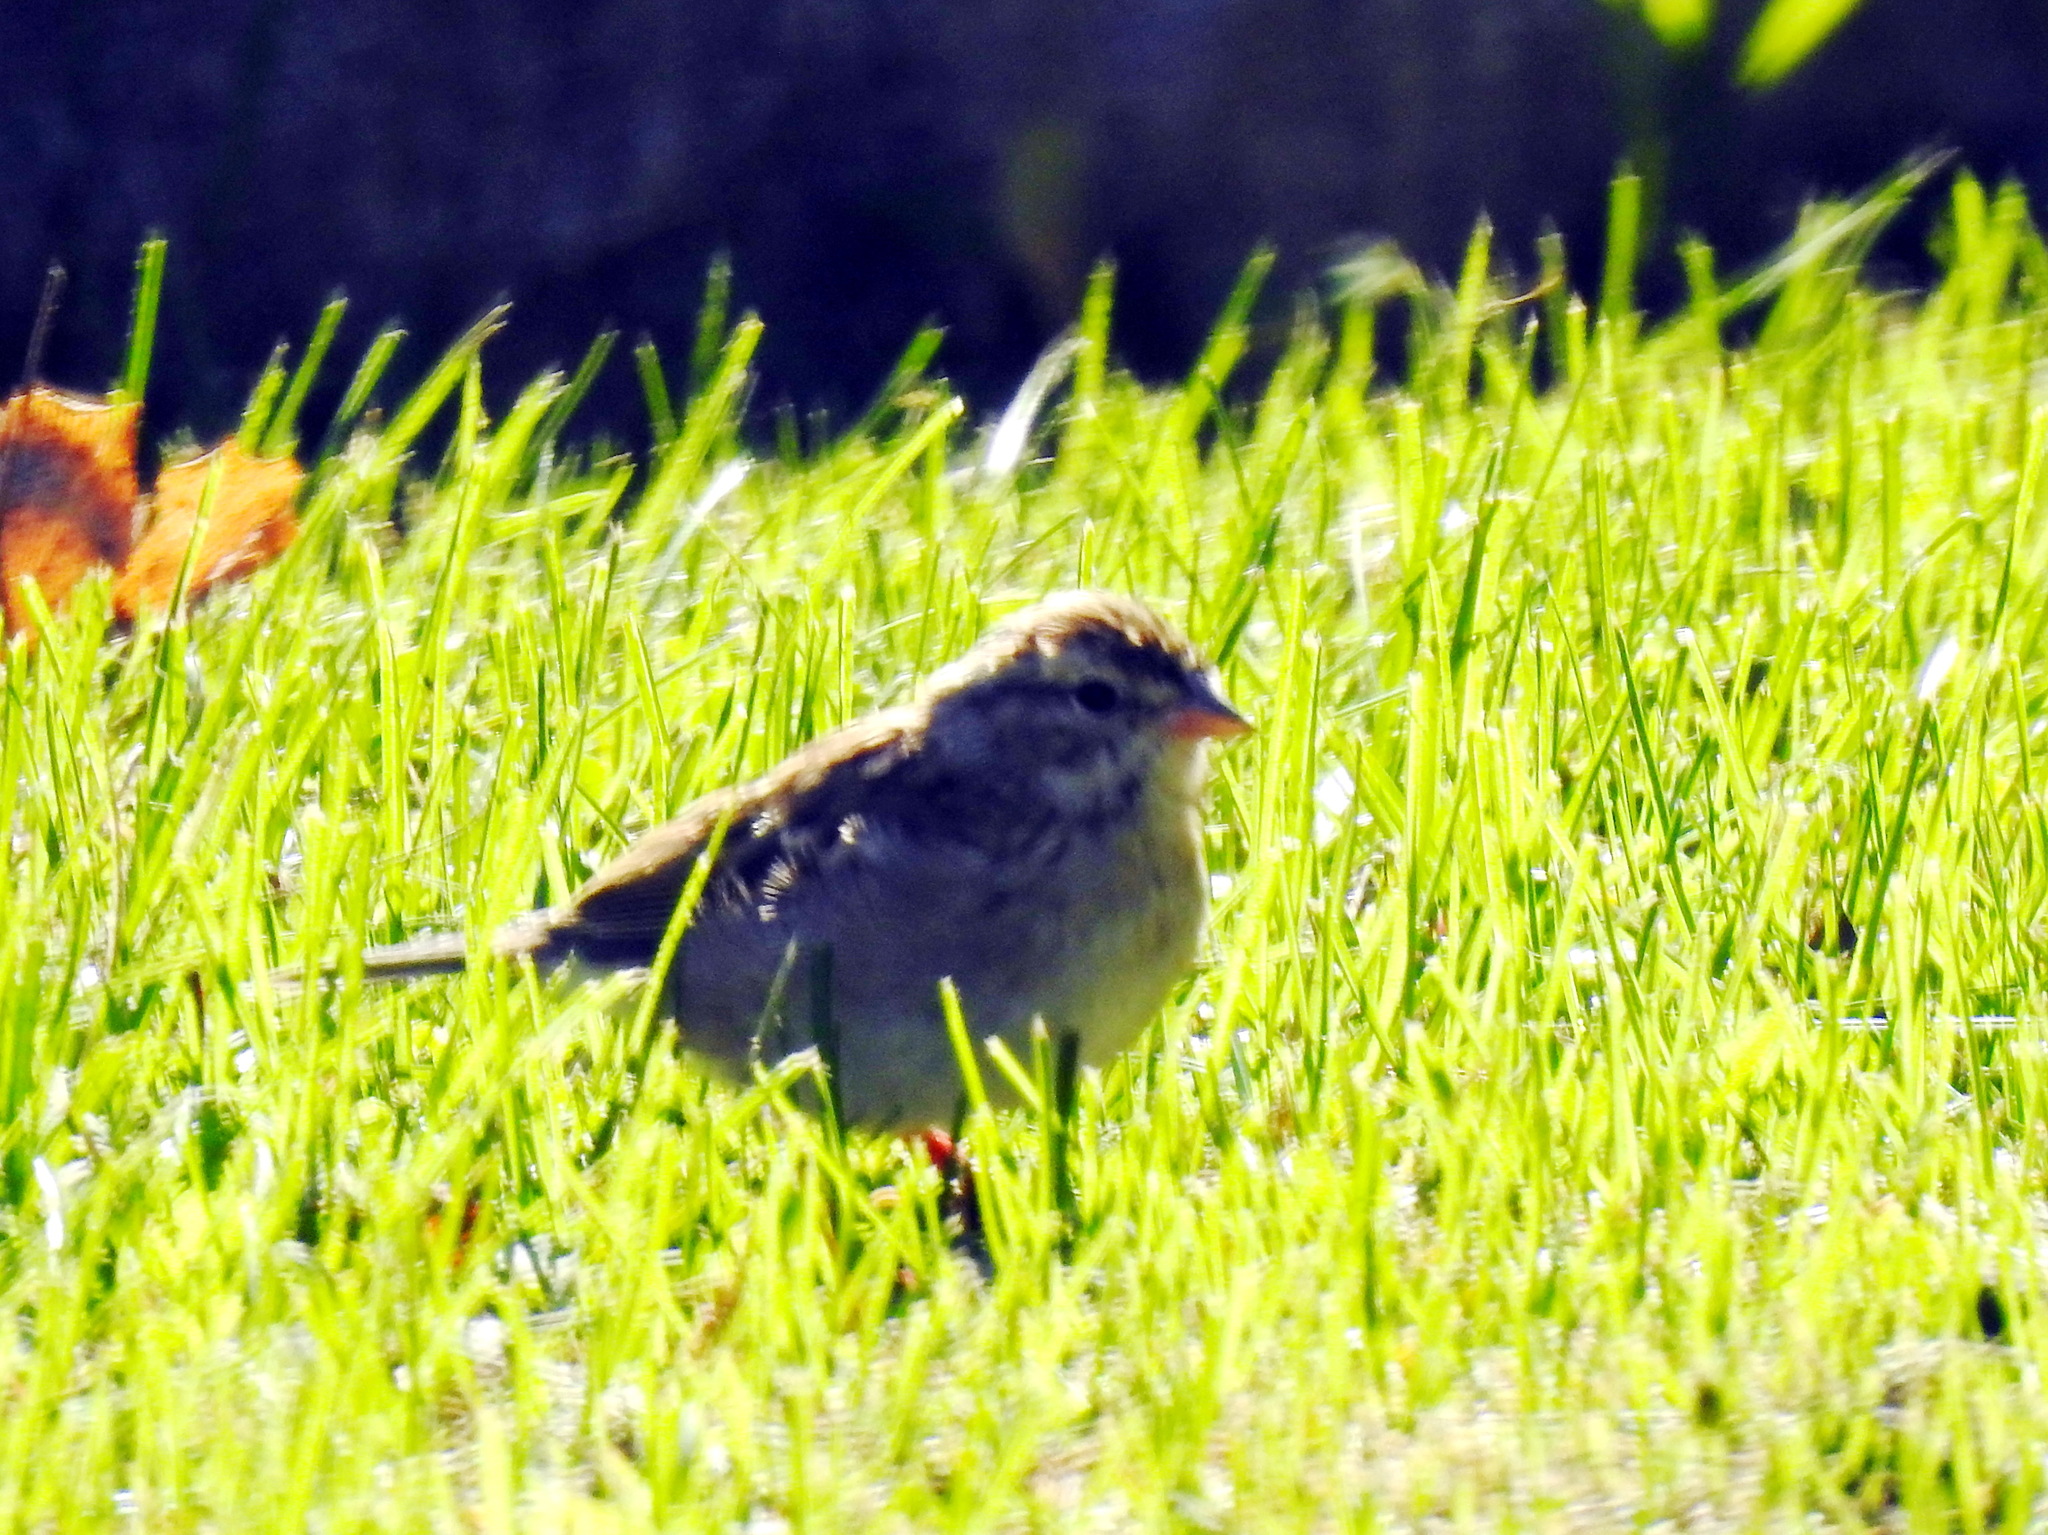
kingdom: Animalia
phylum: Chordata
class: Aves
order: Passeriformes
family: Passerellidae
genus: Spizella
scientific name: Spizella passerina
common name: Chipping sparrow
